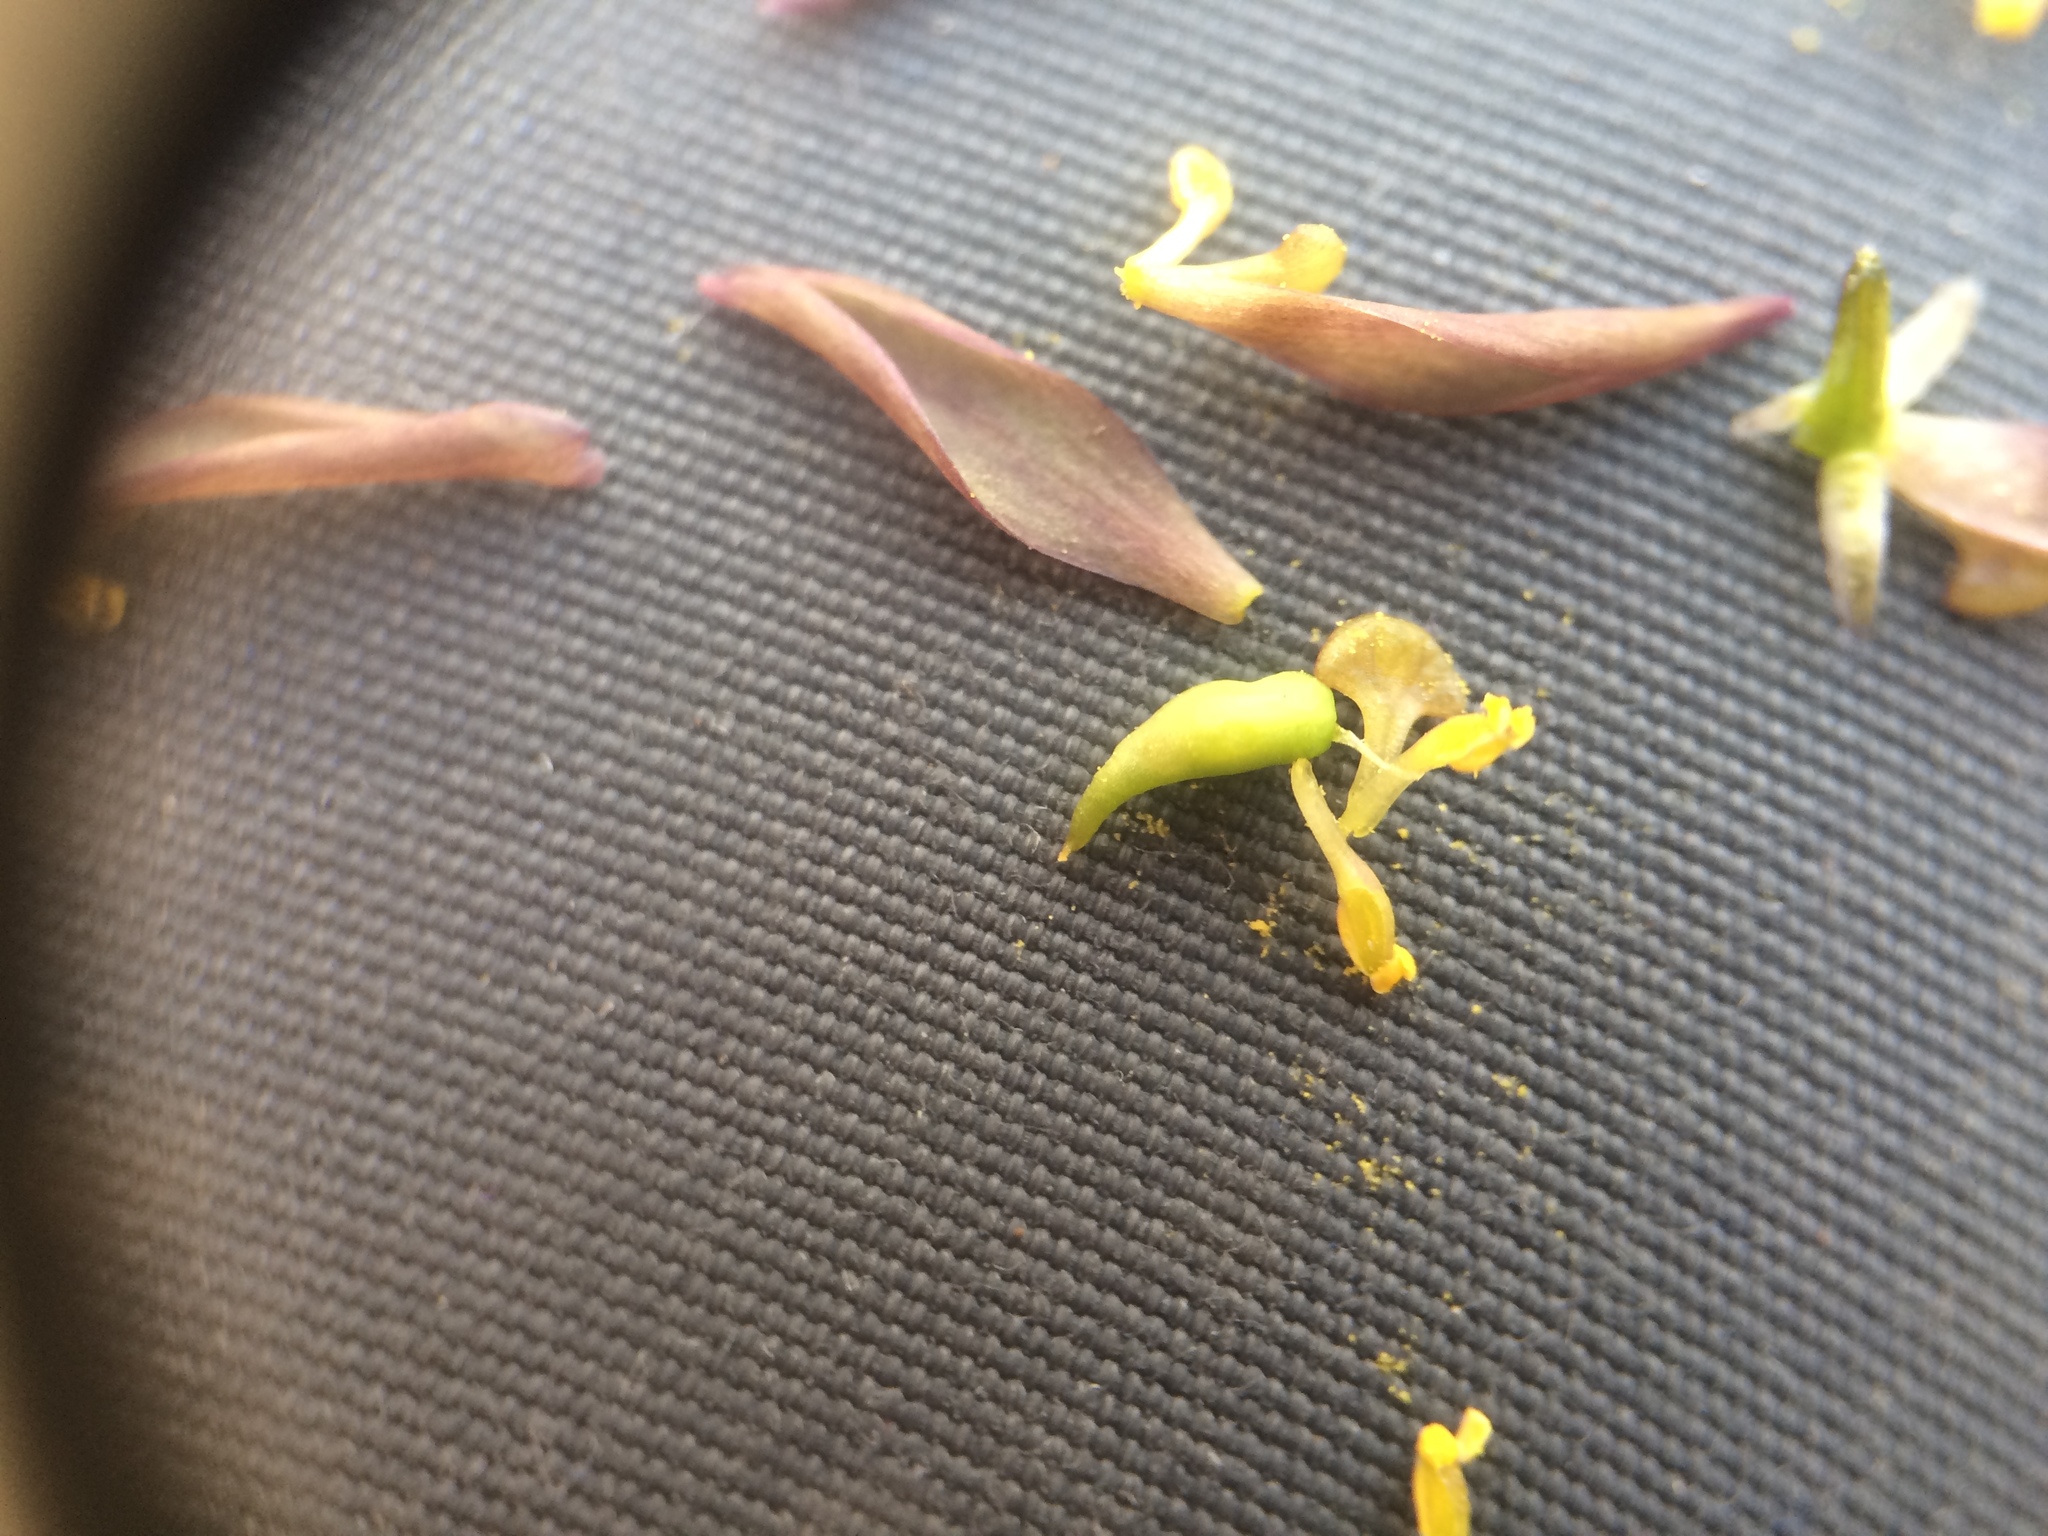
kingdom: Plantae
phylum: Tracheophyta
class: Magnoliopsida
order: Ranunculales
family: Berberidaceae
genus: Caulophyllum
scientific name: Caulophyllum giganteum
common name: Blue cohosh
